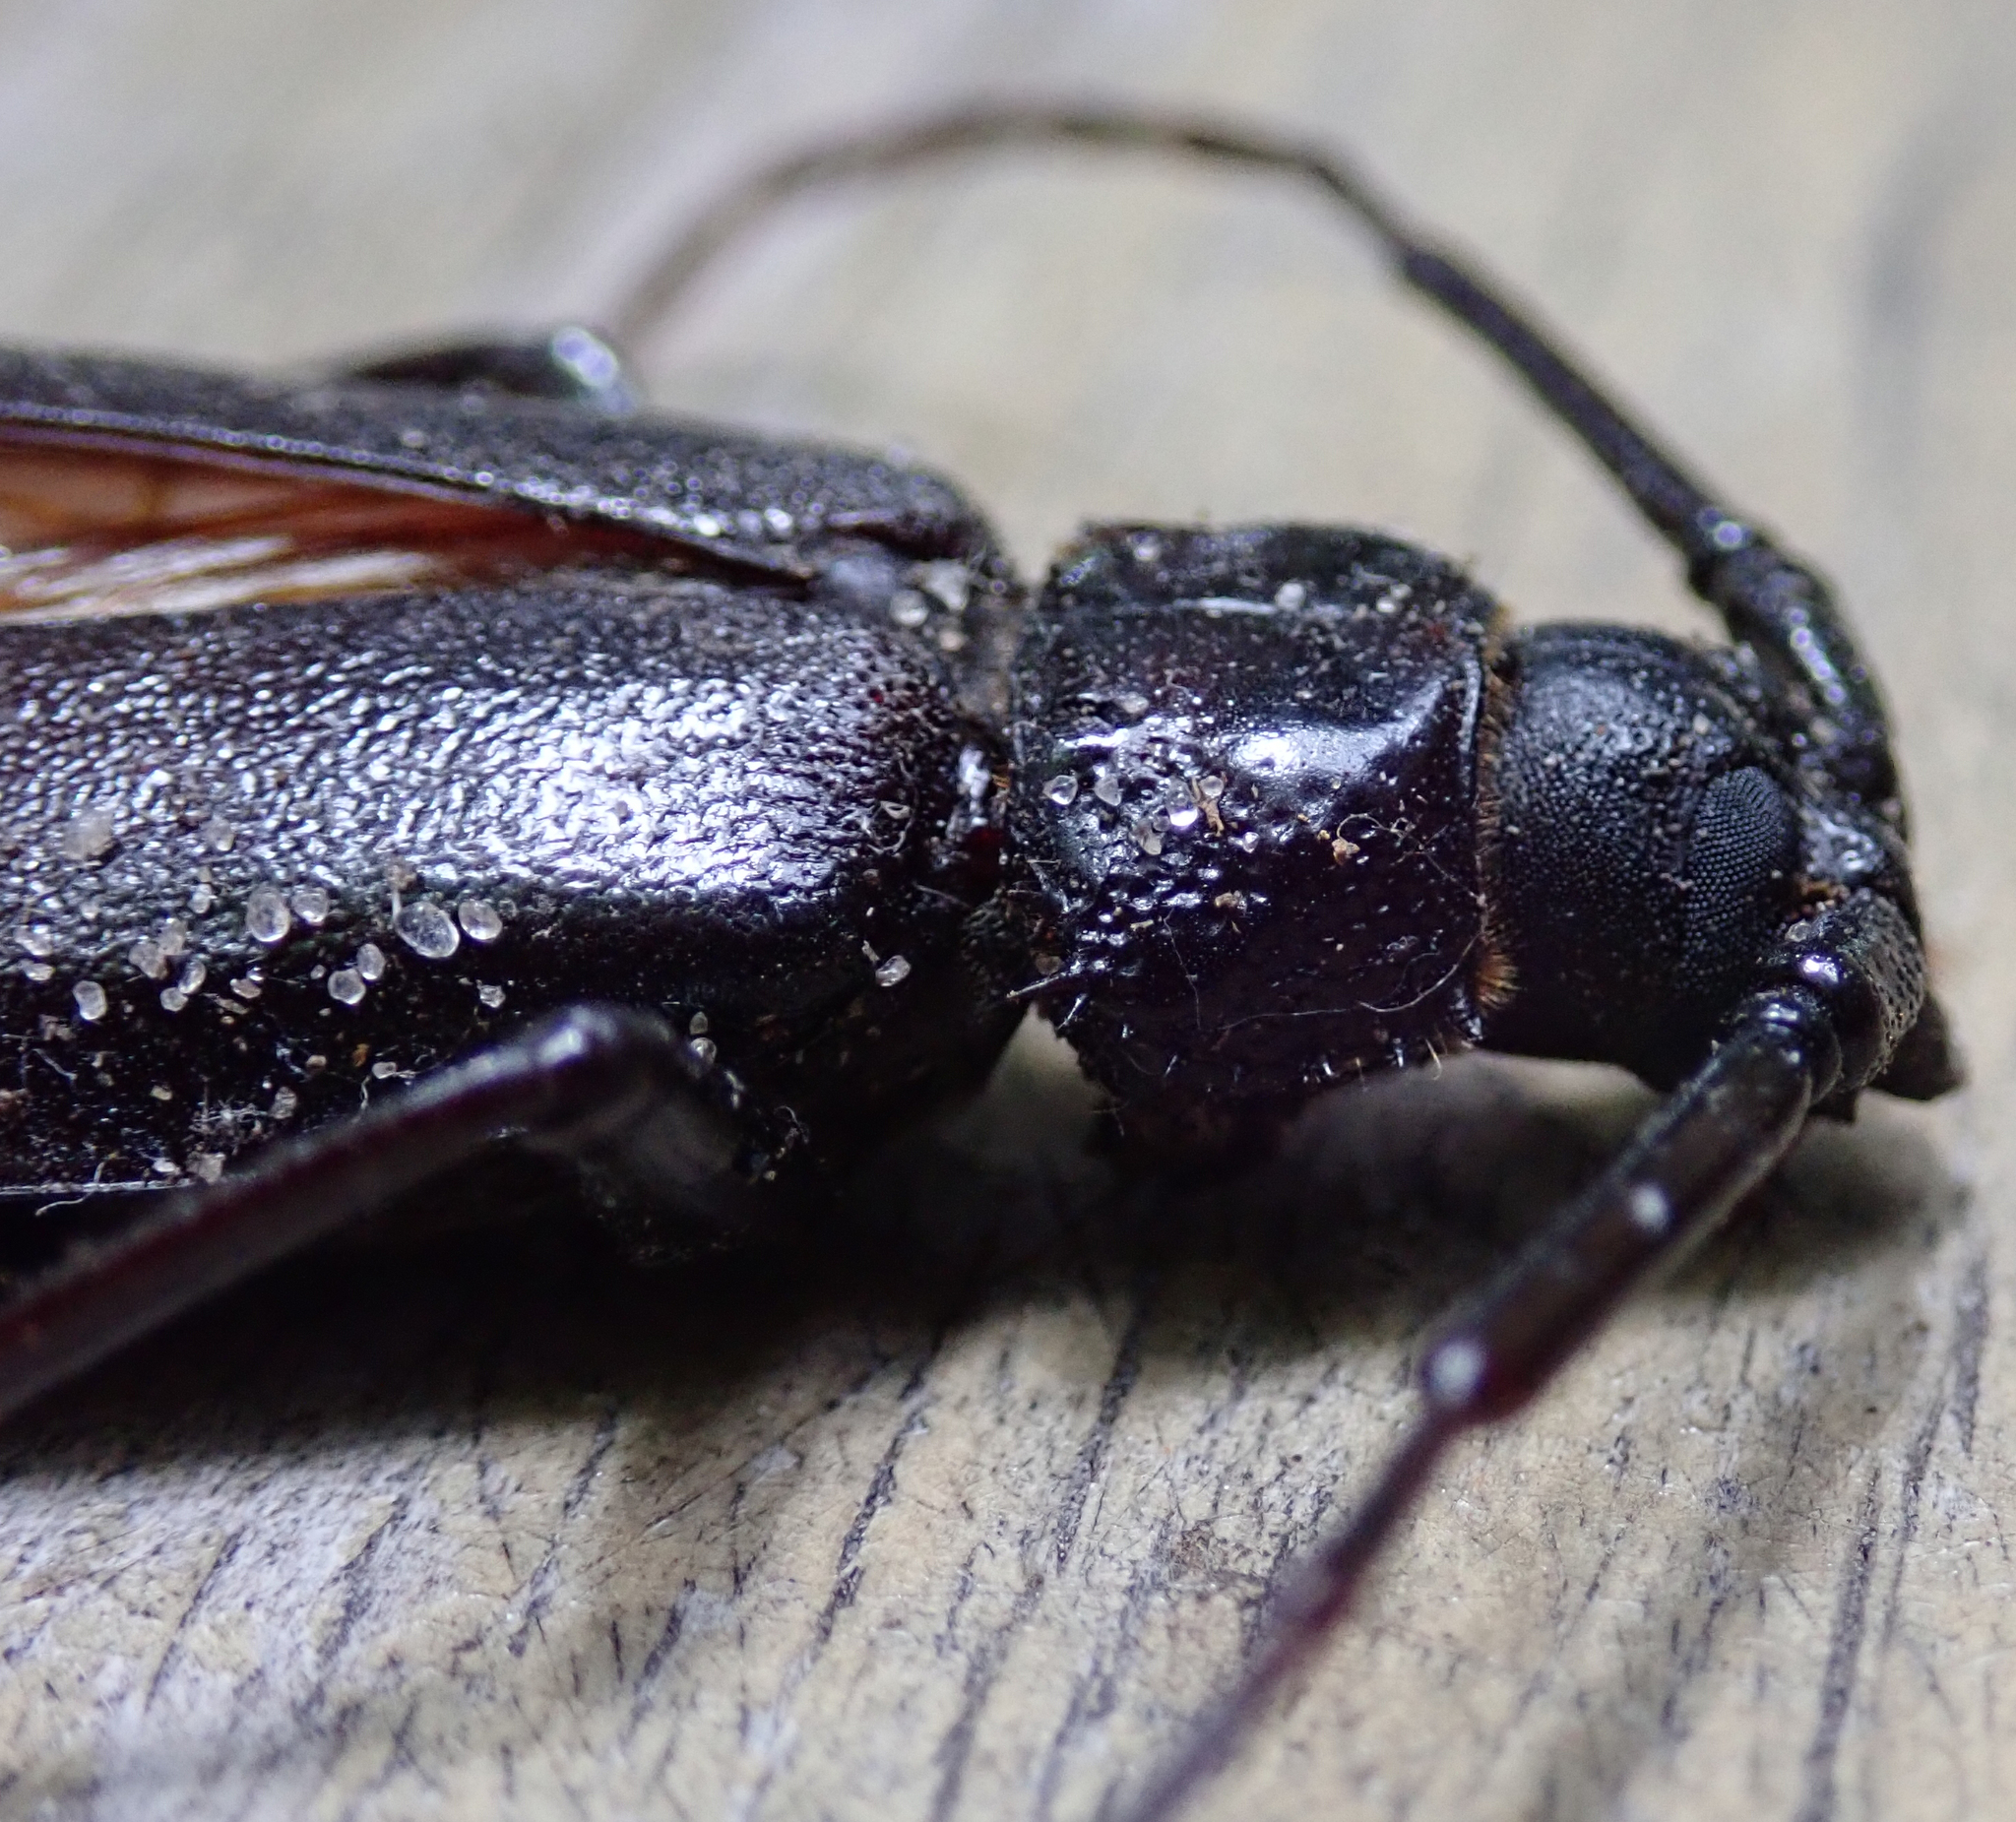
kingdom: Animalia
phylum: Arthropoda
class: Insecta
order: Coleoptera
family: Cerambycidae
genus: Macrotoma
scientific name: Macrotoma palmata
